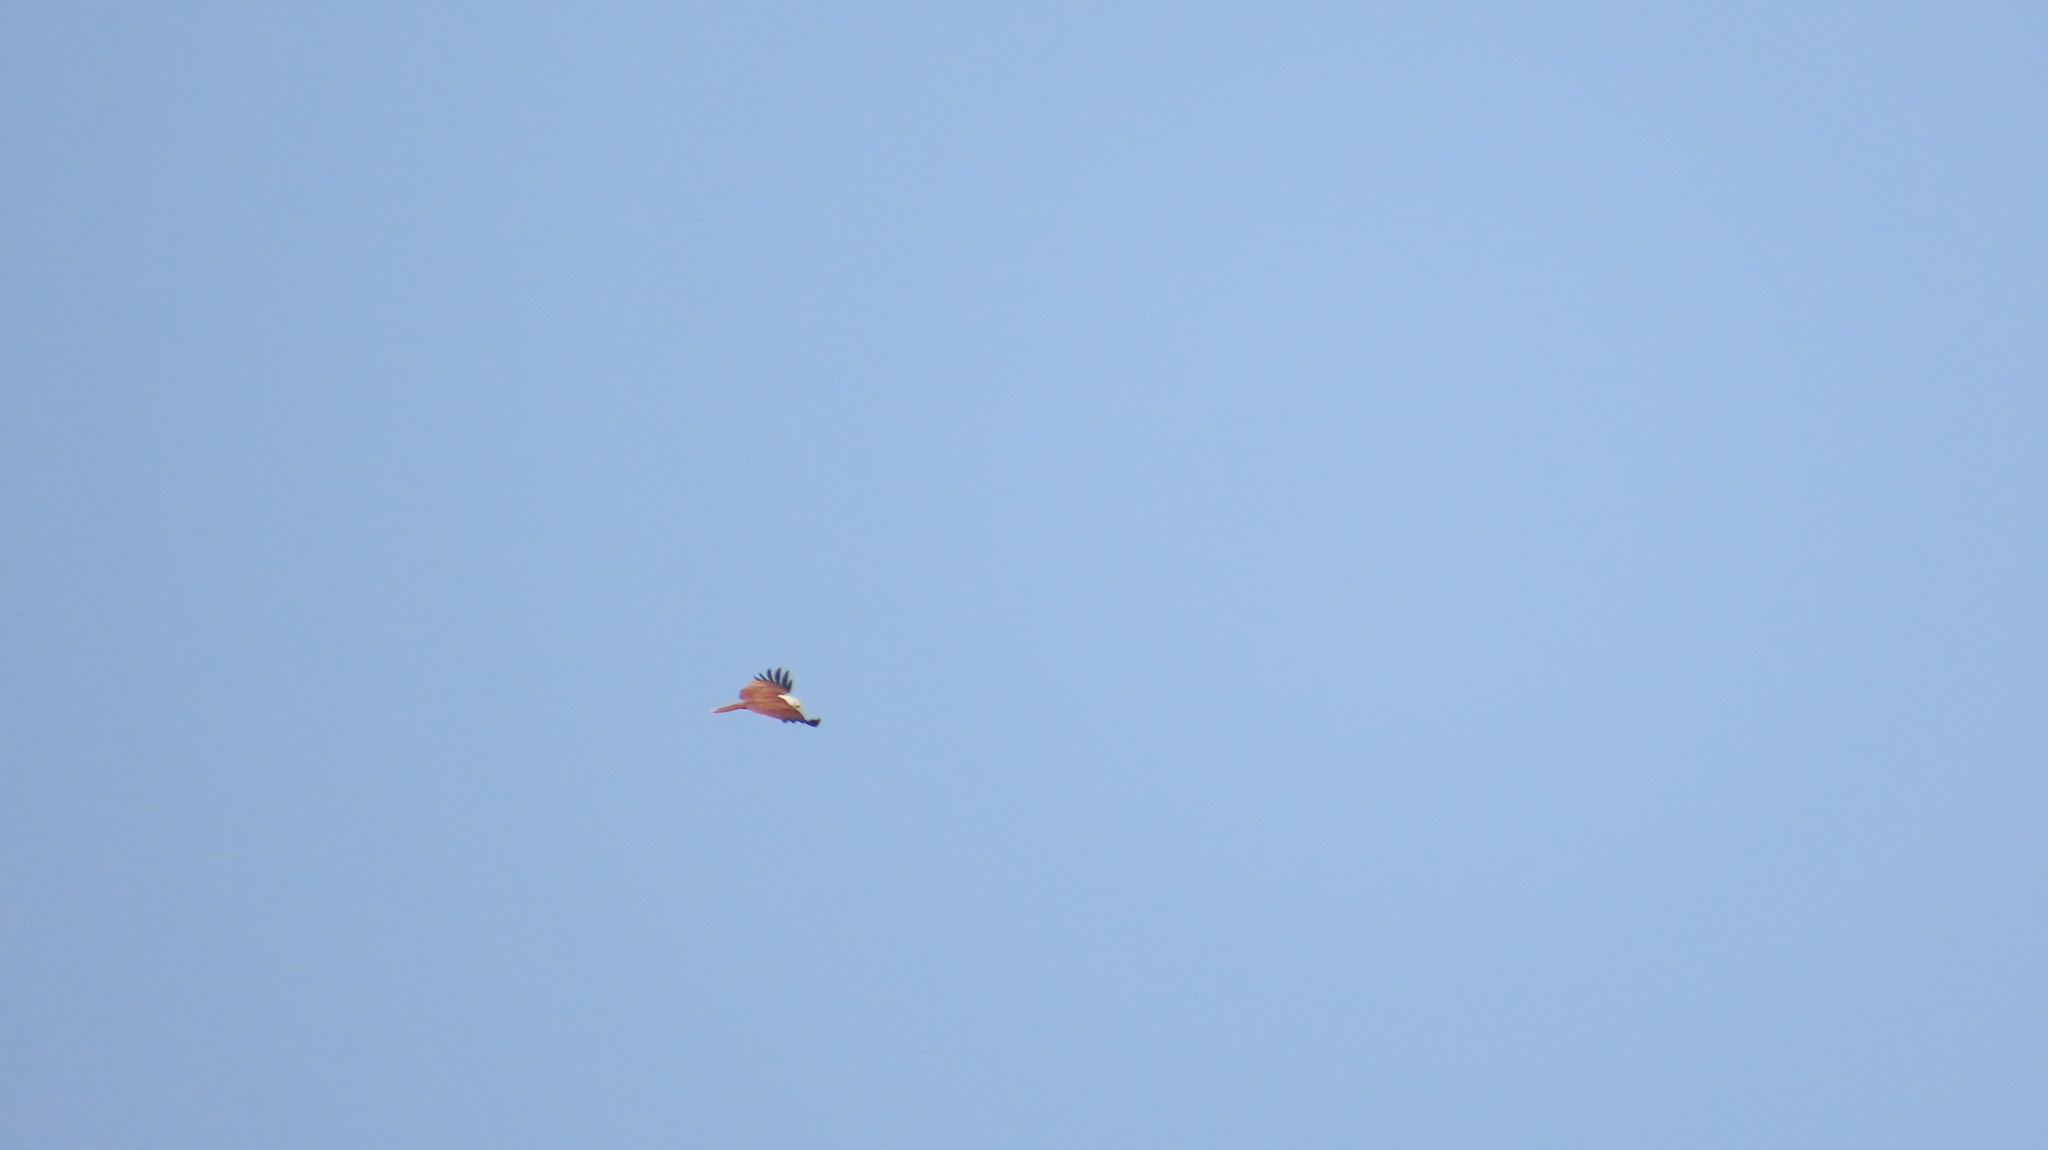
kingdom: Animalia
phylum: Chordata
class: Aves
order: Accipitriformes
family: Accipitridae
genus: Haliastur
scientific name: Haliastur indus
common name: Brahminy kite
